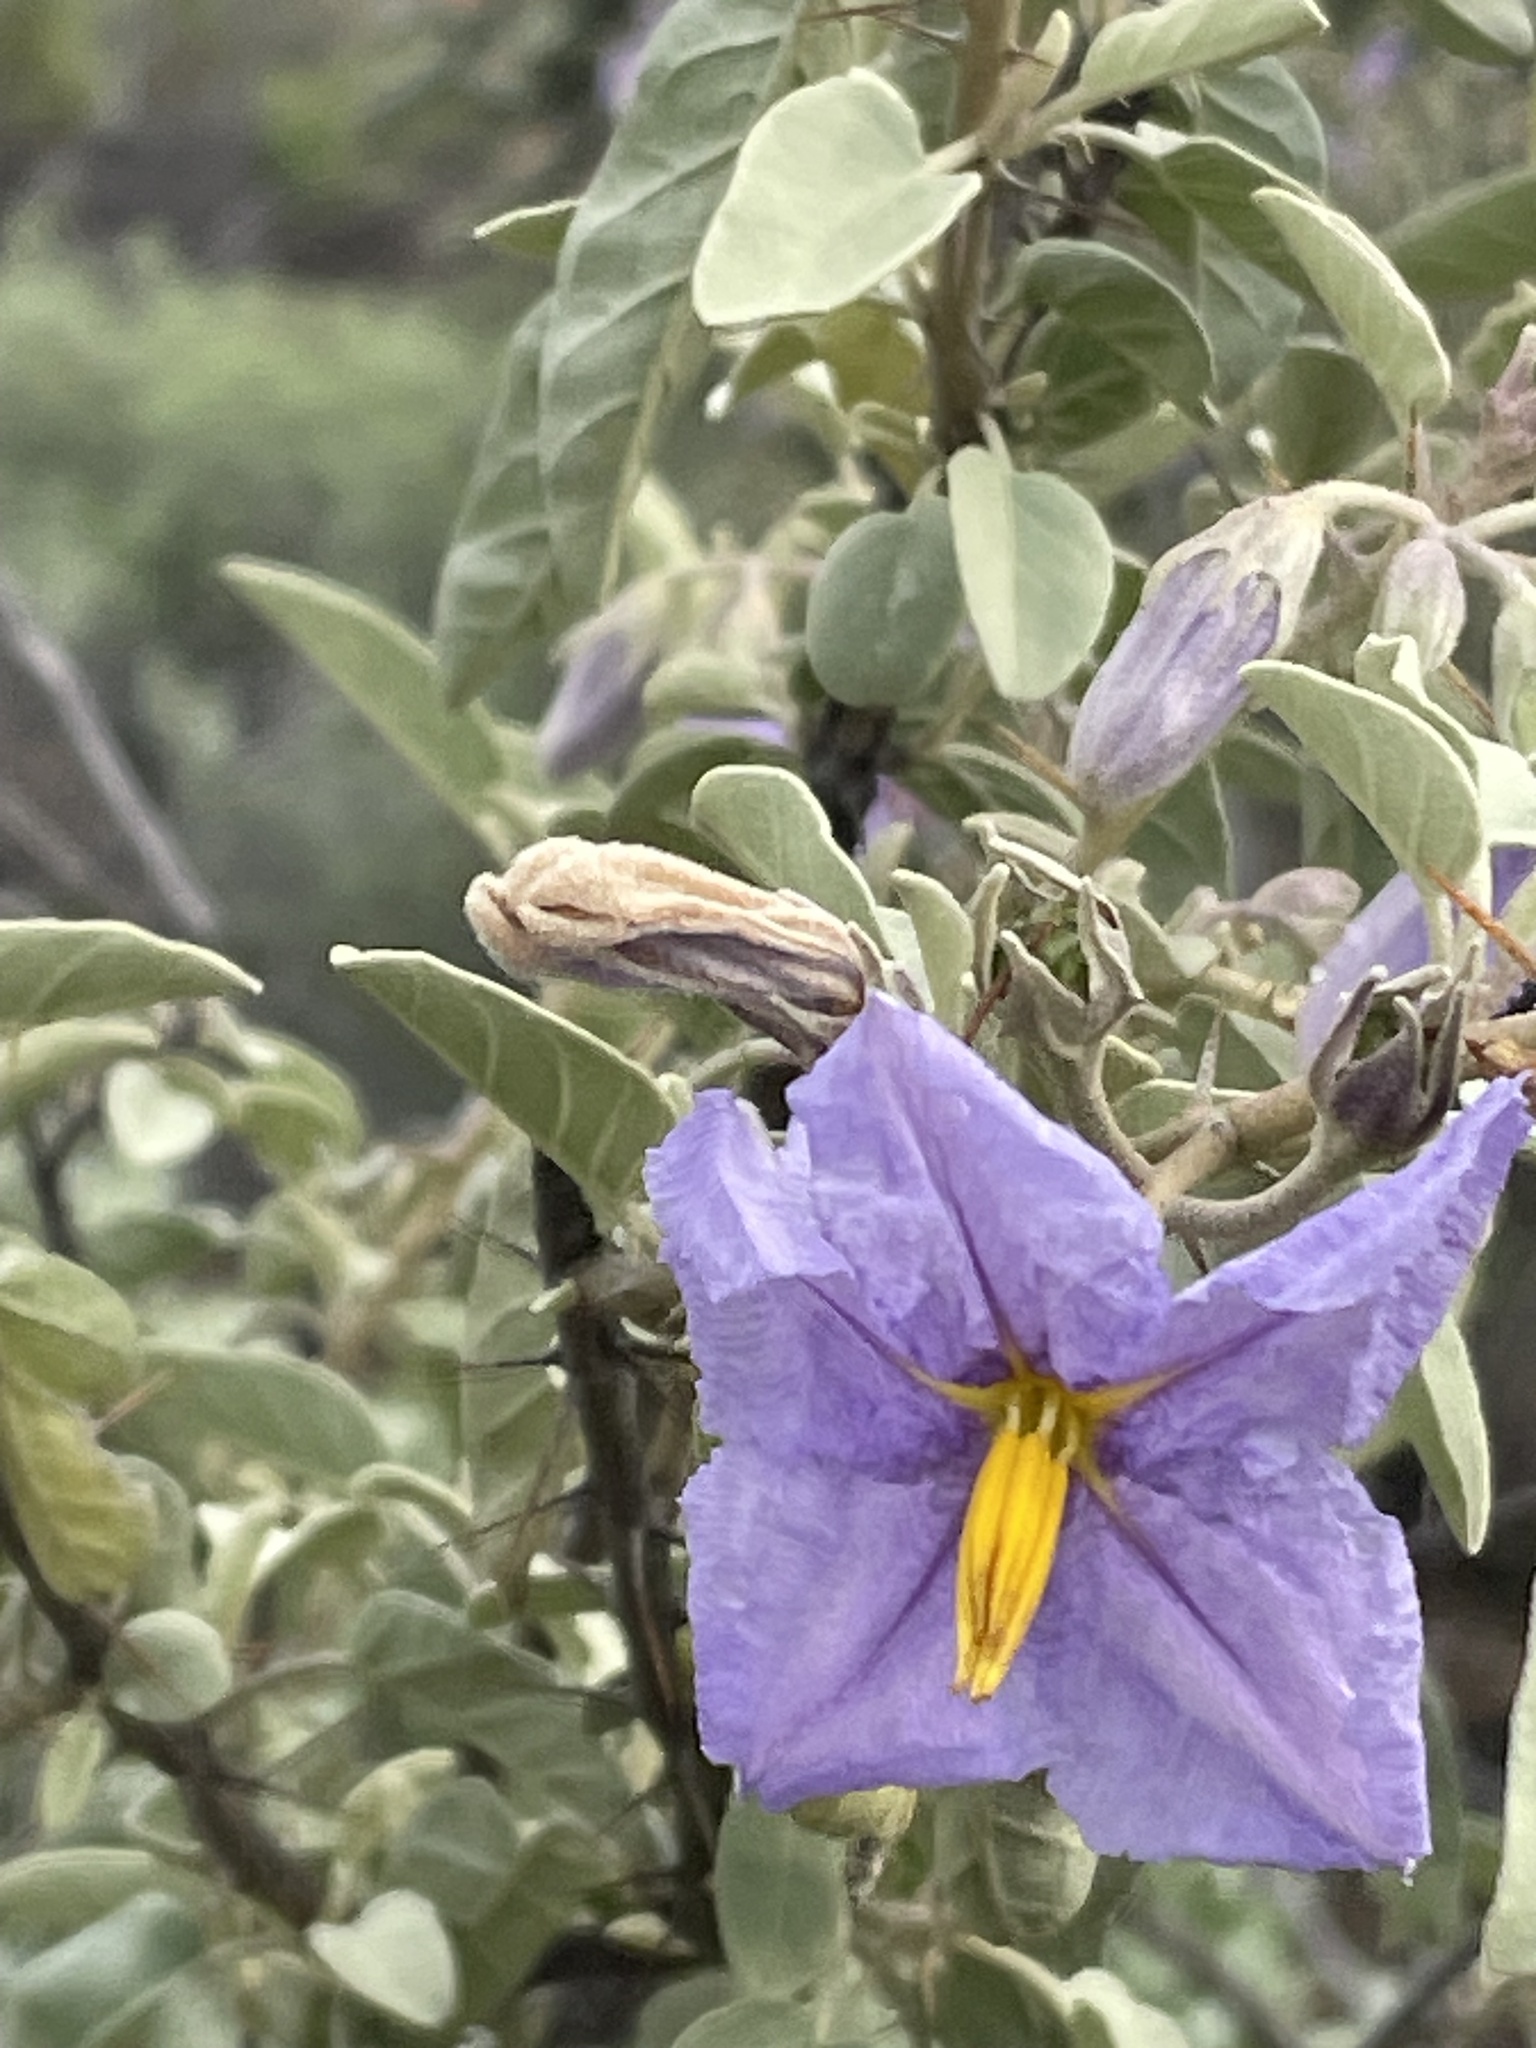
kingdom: Plantae
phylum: Tracheophyta
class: Magnoliopsida
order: Solanales
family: Solanaceae
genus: Solanum
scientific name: Solanum hindsianum
